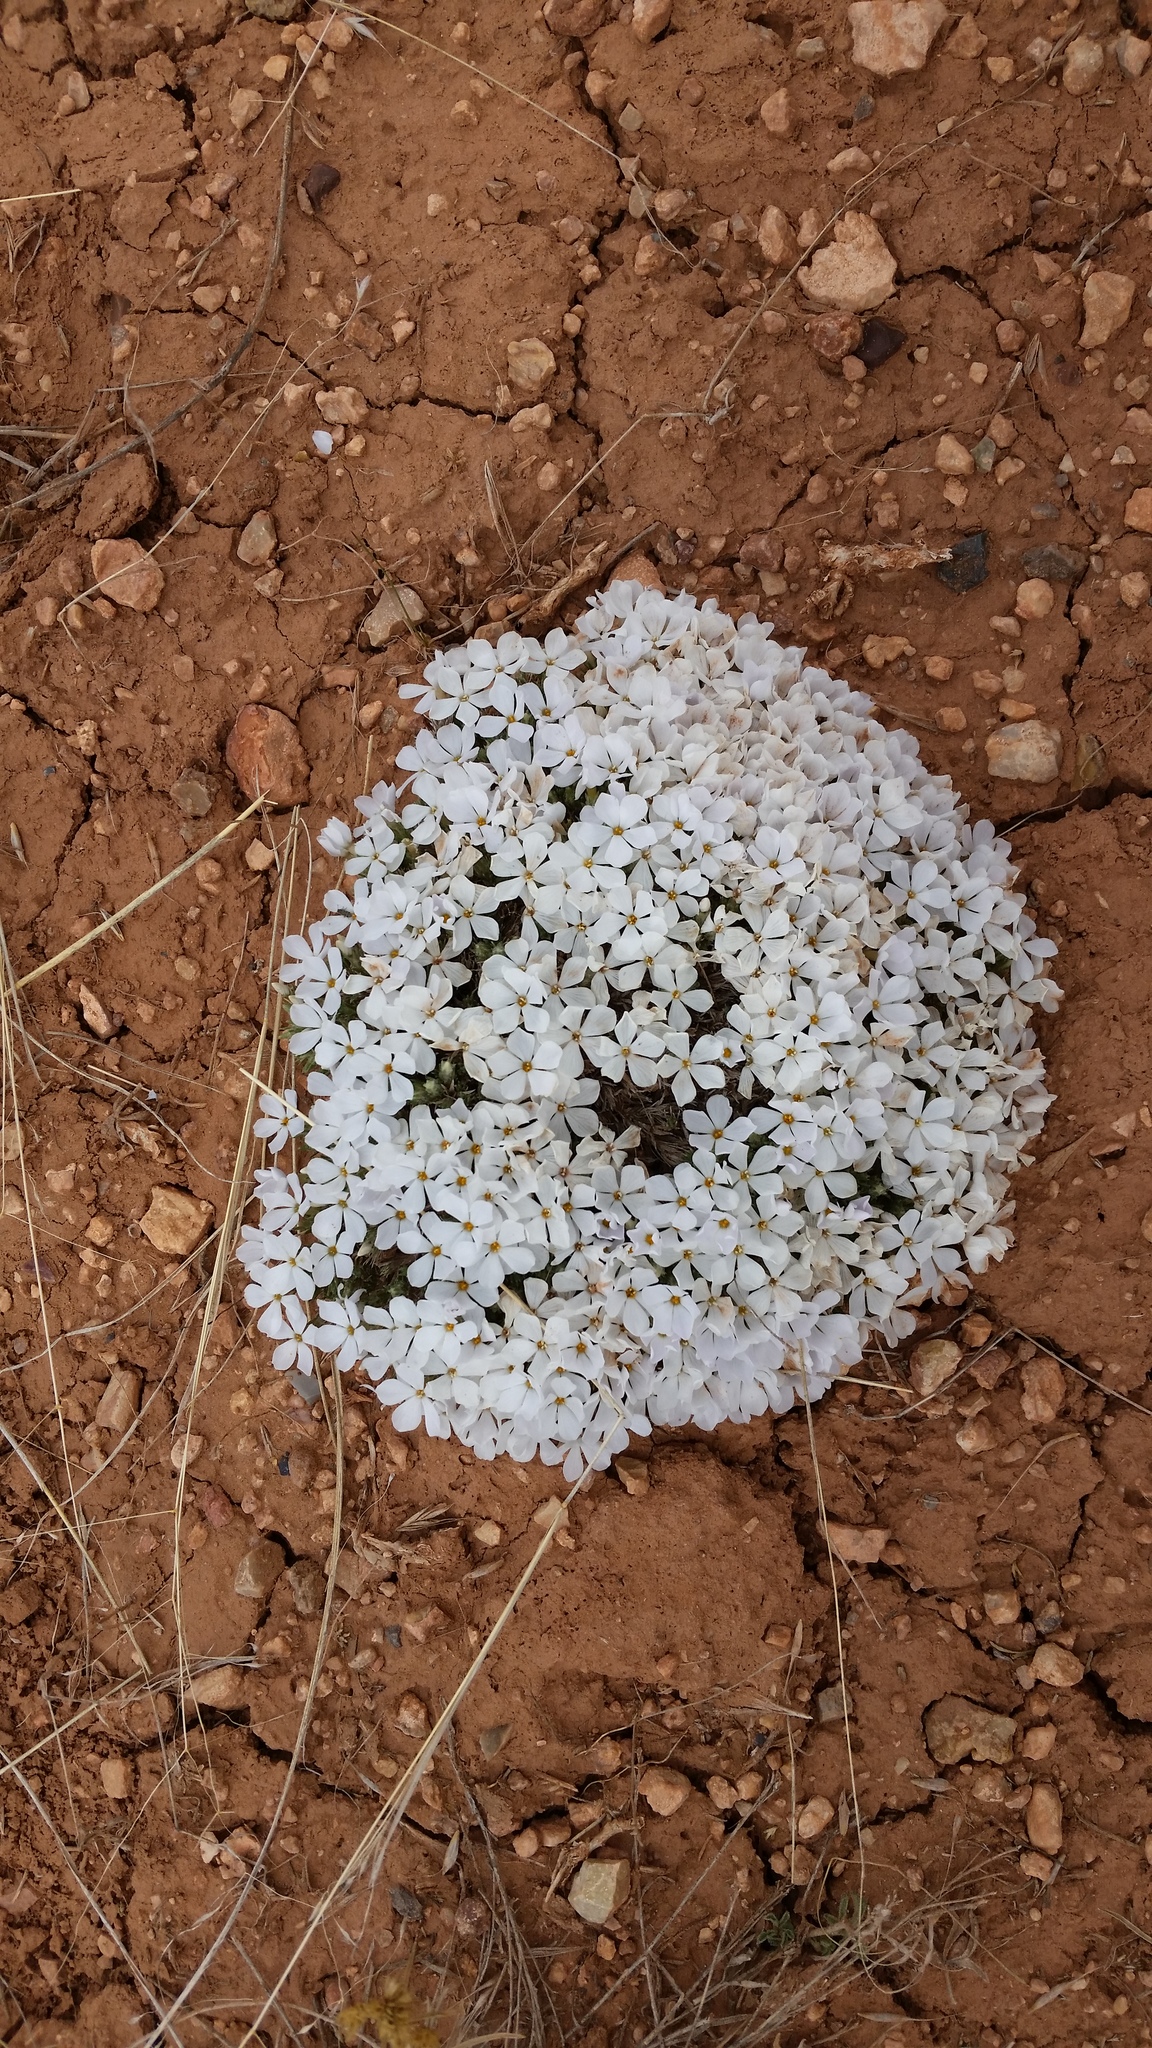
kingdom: Plantae
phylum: Tracheophyta
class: Magnoliopsida
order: Ericales
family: Polemoniaceae
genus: Phlox
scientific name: Phlox hoodii
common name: Moss phlox
